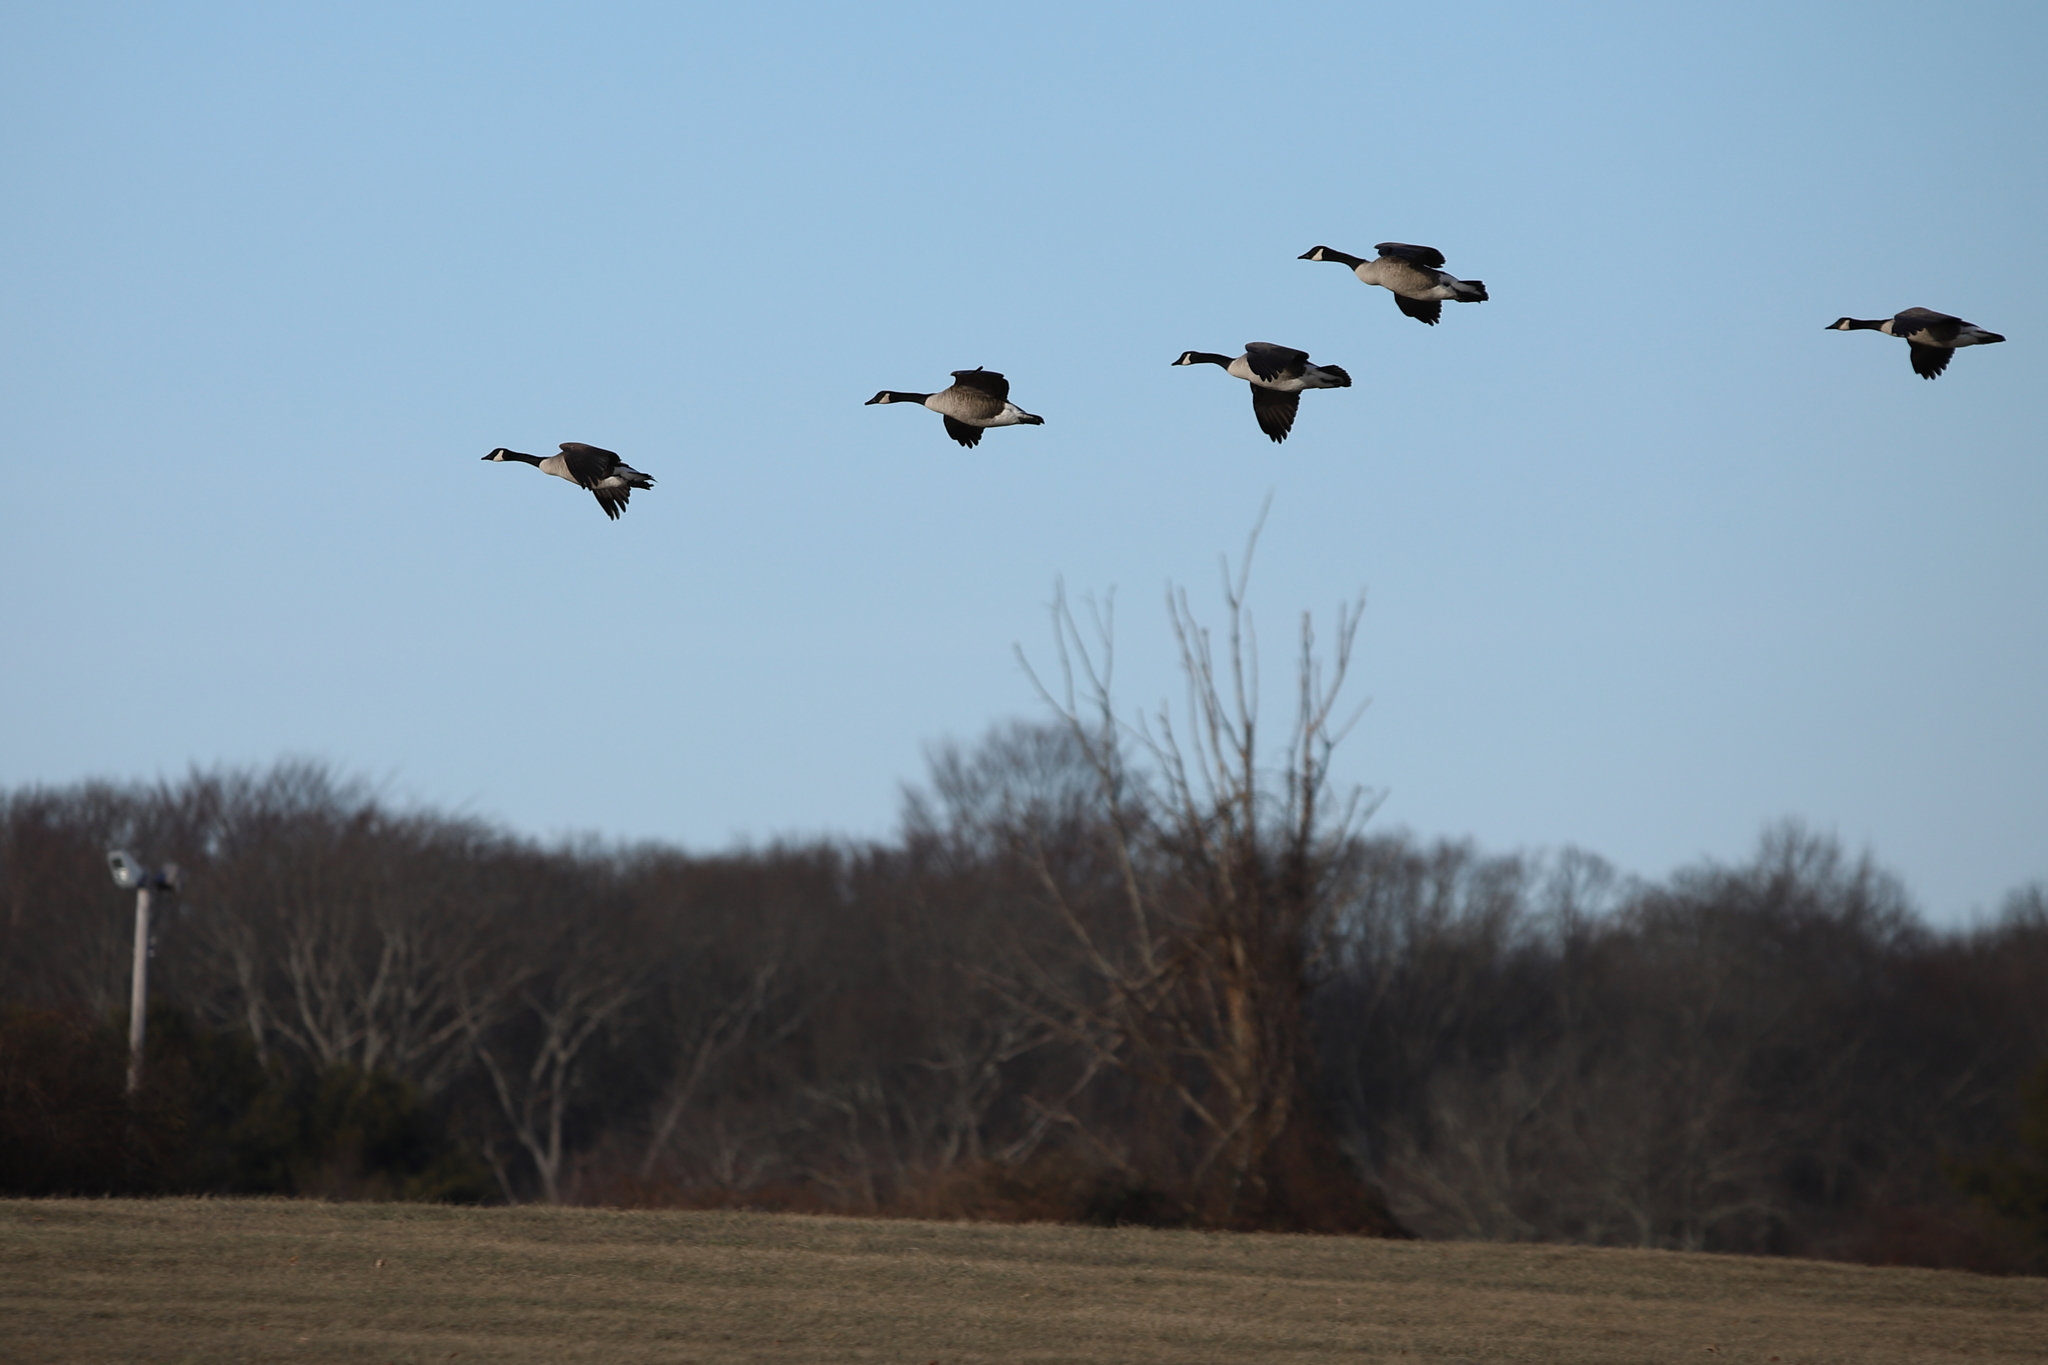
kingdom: Animalia
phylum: Chordata
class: Aves
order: Anseriformes
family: Anatidae
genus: Branta
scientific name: Branta canadensis
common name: Canada goose
